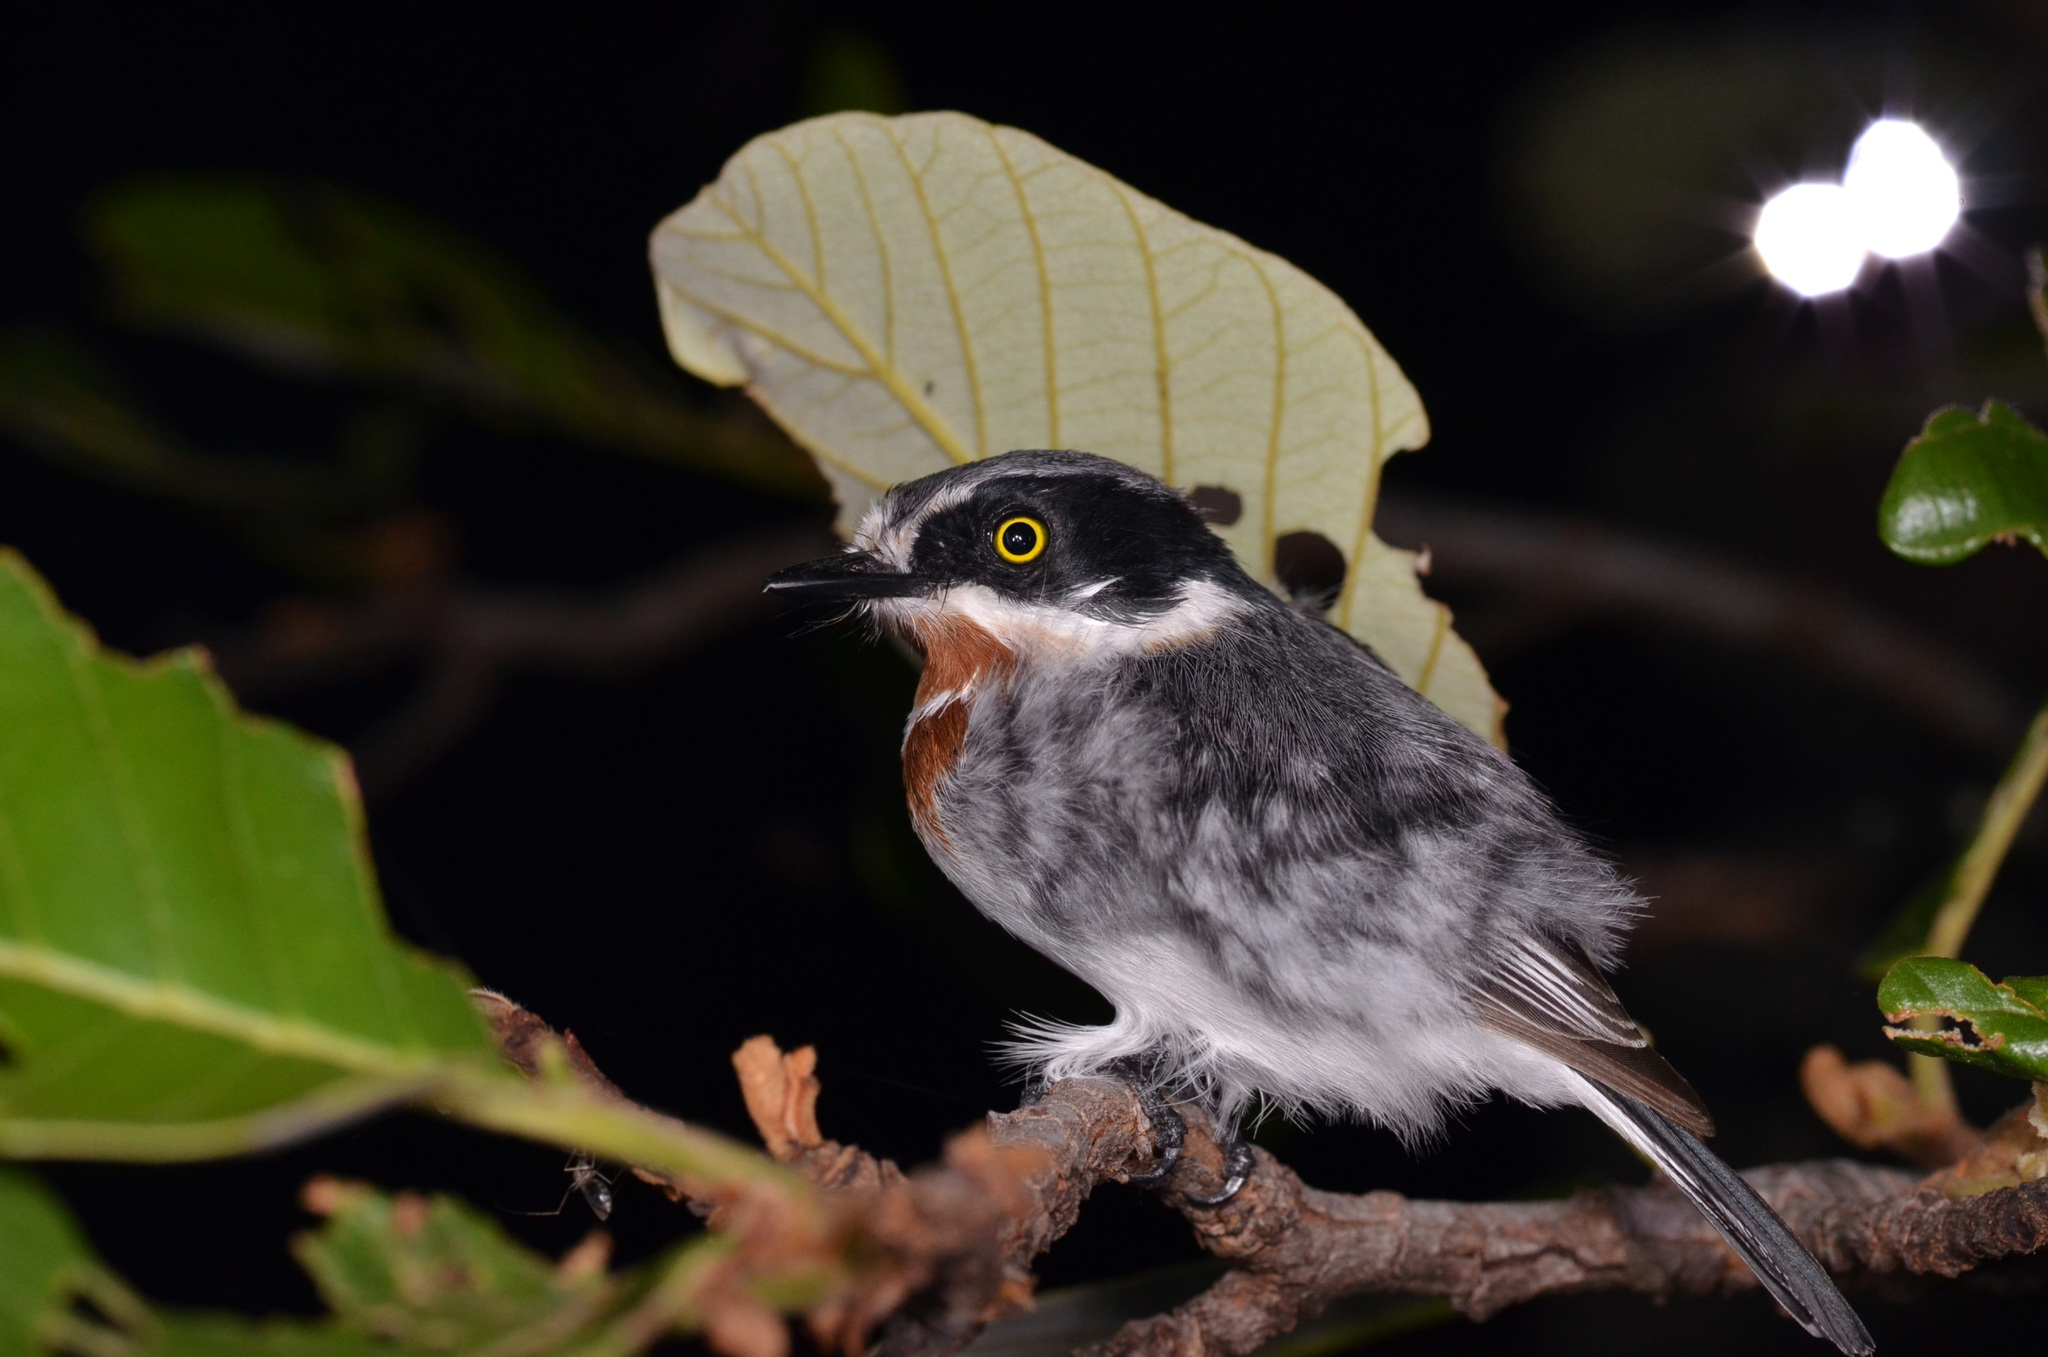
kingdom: Animalia
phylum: Chordata
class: Aves
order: Passeriformes
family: Platysteiridae
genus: Batis
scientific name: Batis molitor
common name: Chinspot batis
